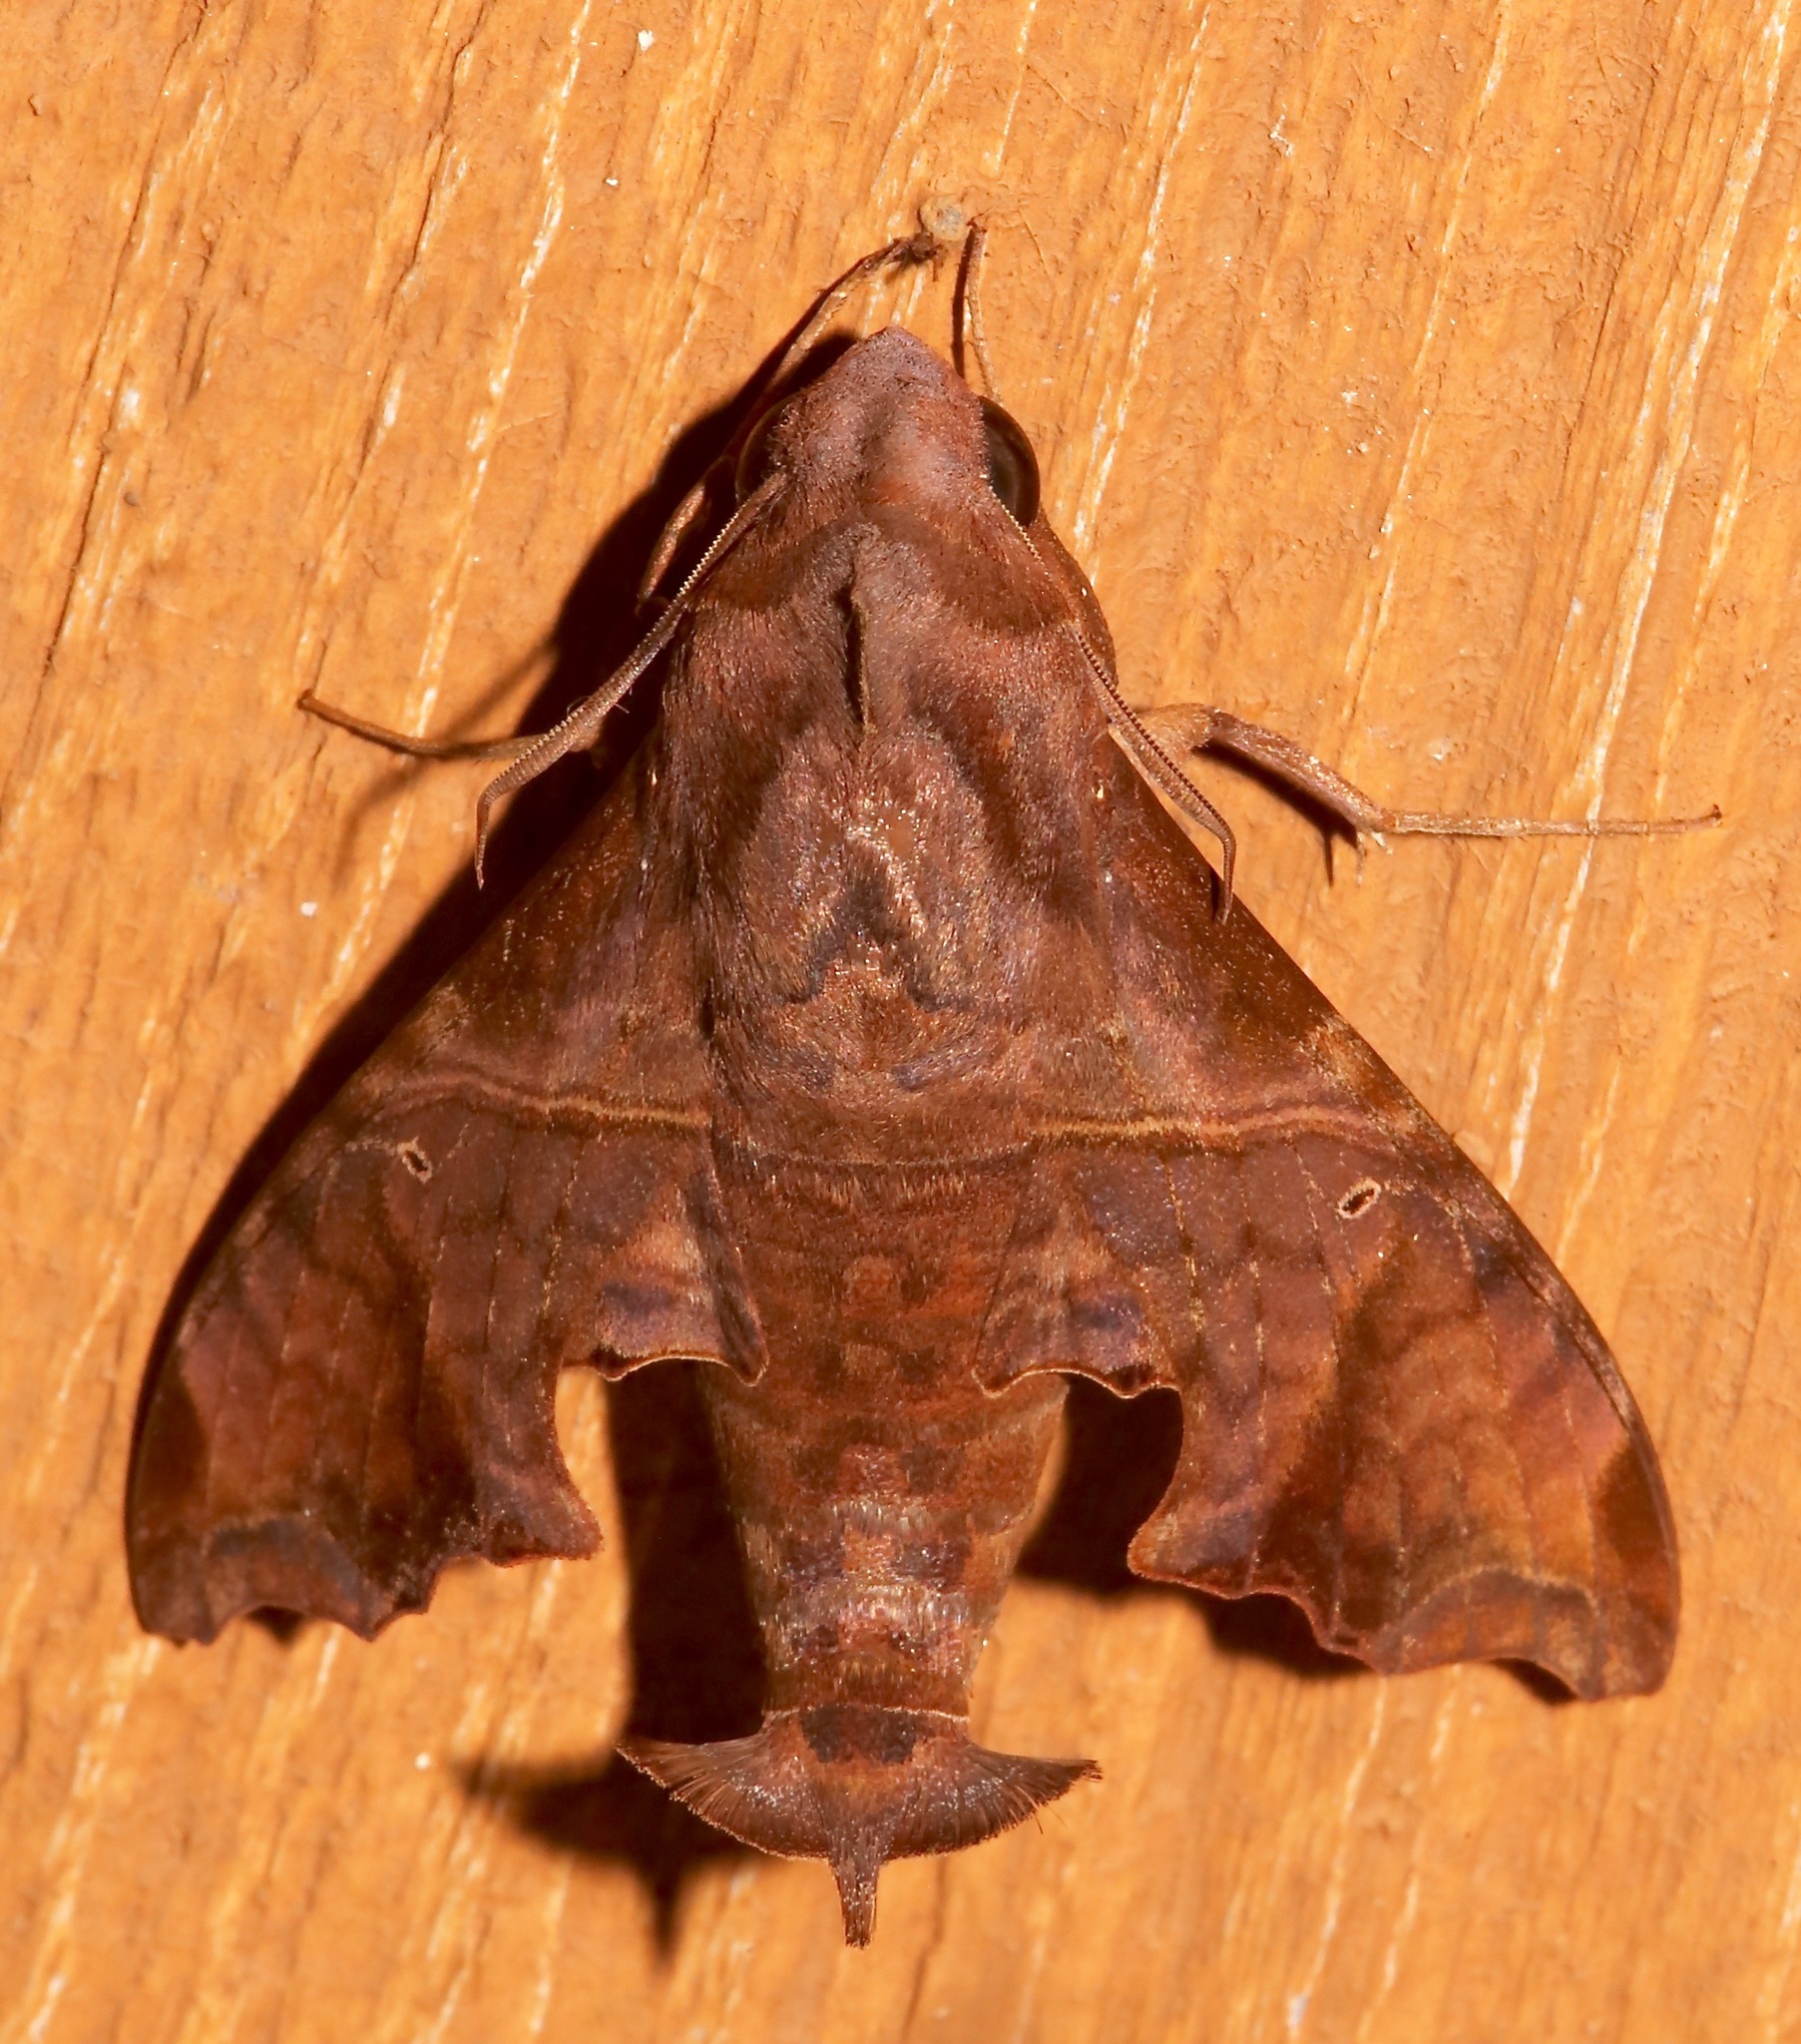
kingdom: Animalia
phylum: Arthropoda
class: Insecta
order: Lepidoptera
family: Sphingidae
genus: Enyo
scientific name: Enyo lugubris
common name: Mournful sphinx
